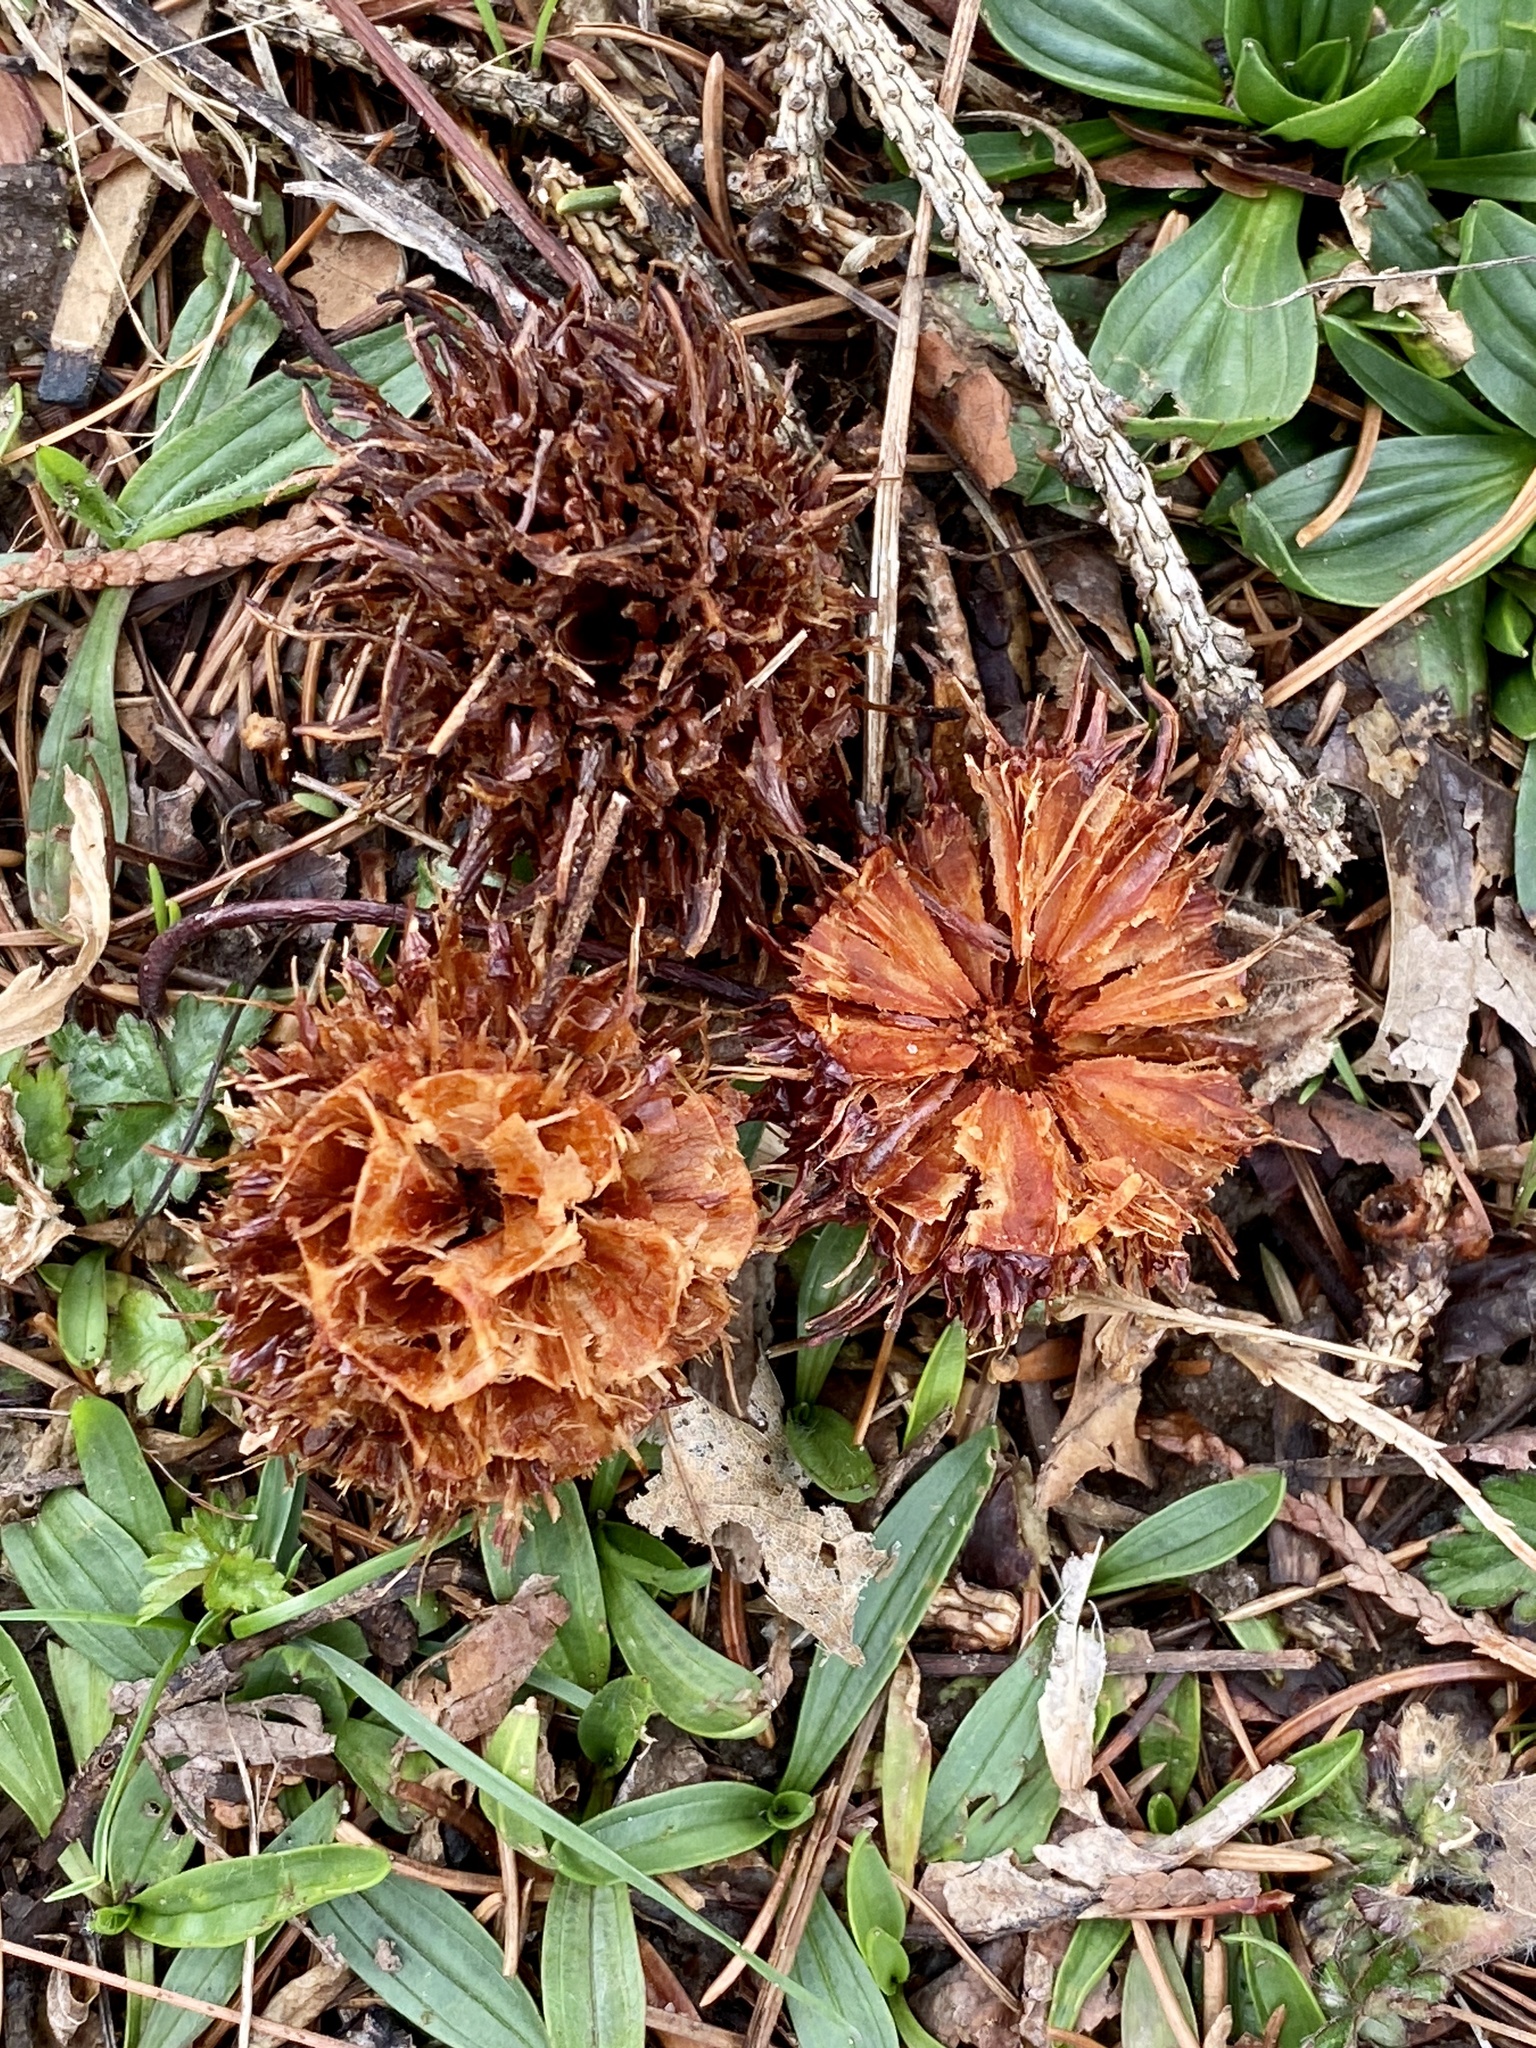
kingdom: Plantae
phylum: Tracheophyta
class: Magnoliopsida
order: Saxifragales
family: Altingiaceae
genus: Liquidambar
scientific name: Liquidambar styraciflua
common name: Sweet gum
